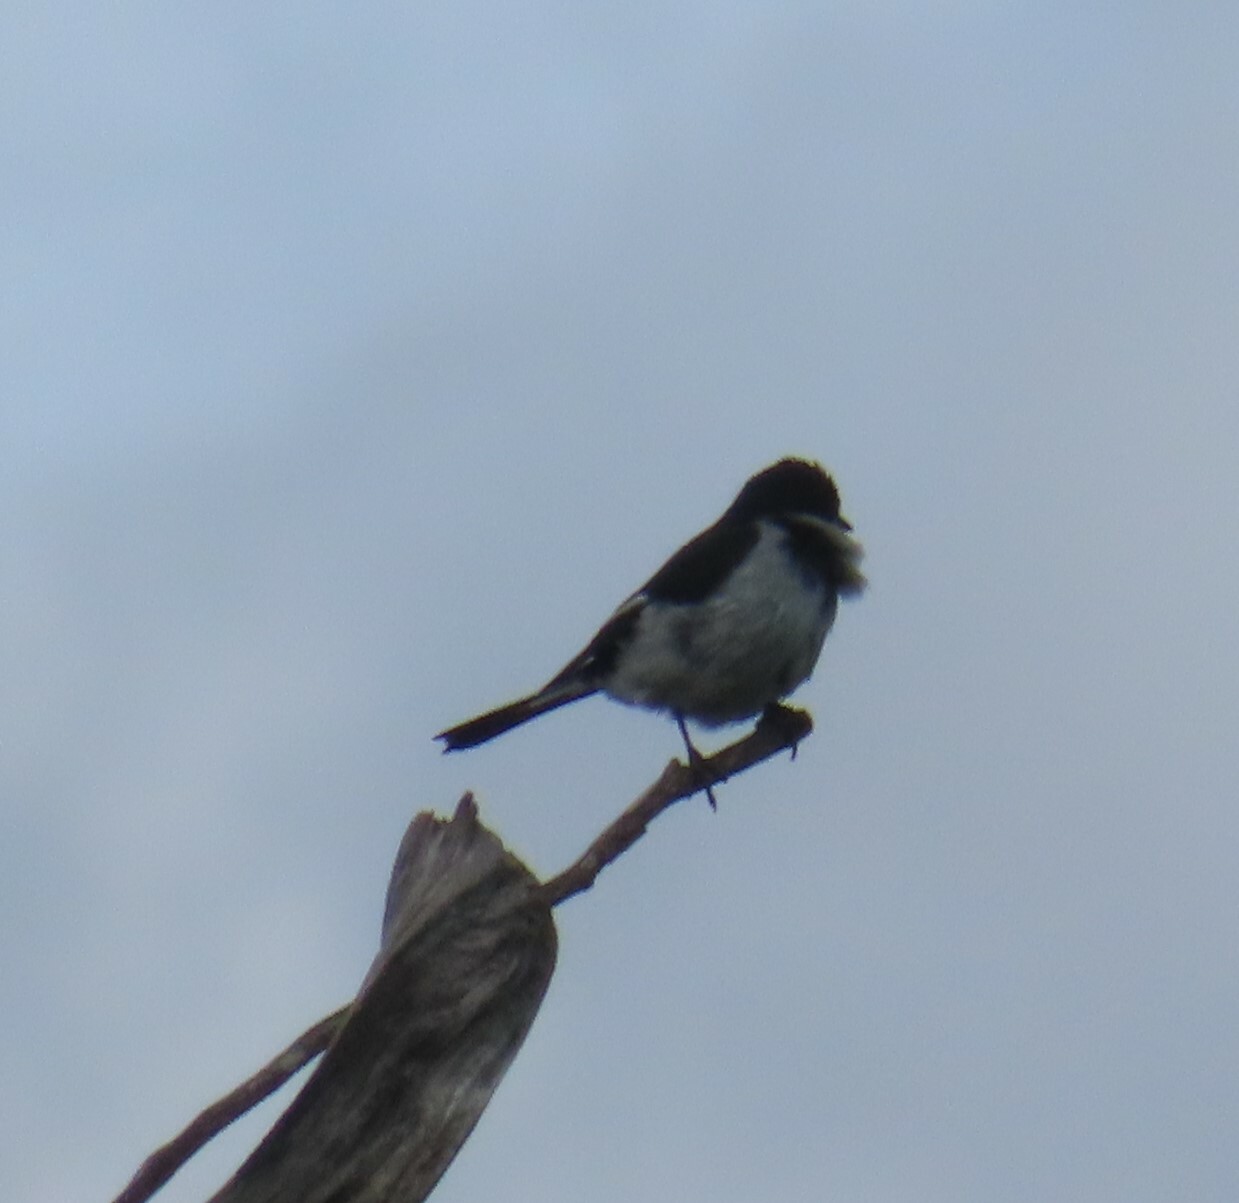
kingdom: Animalia
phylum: Chordata
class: Aves
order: Passeriformes
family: Muscicapidae
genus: Sigelus
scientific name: Sigelus silens
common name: Fiscal flycatcher
